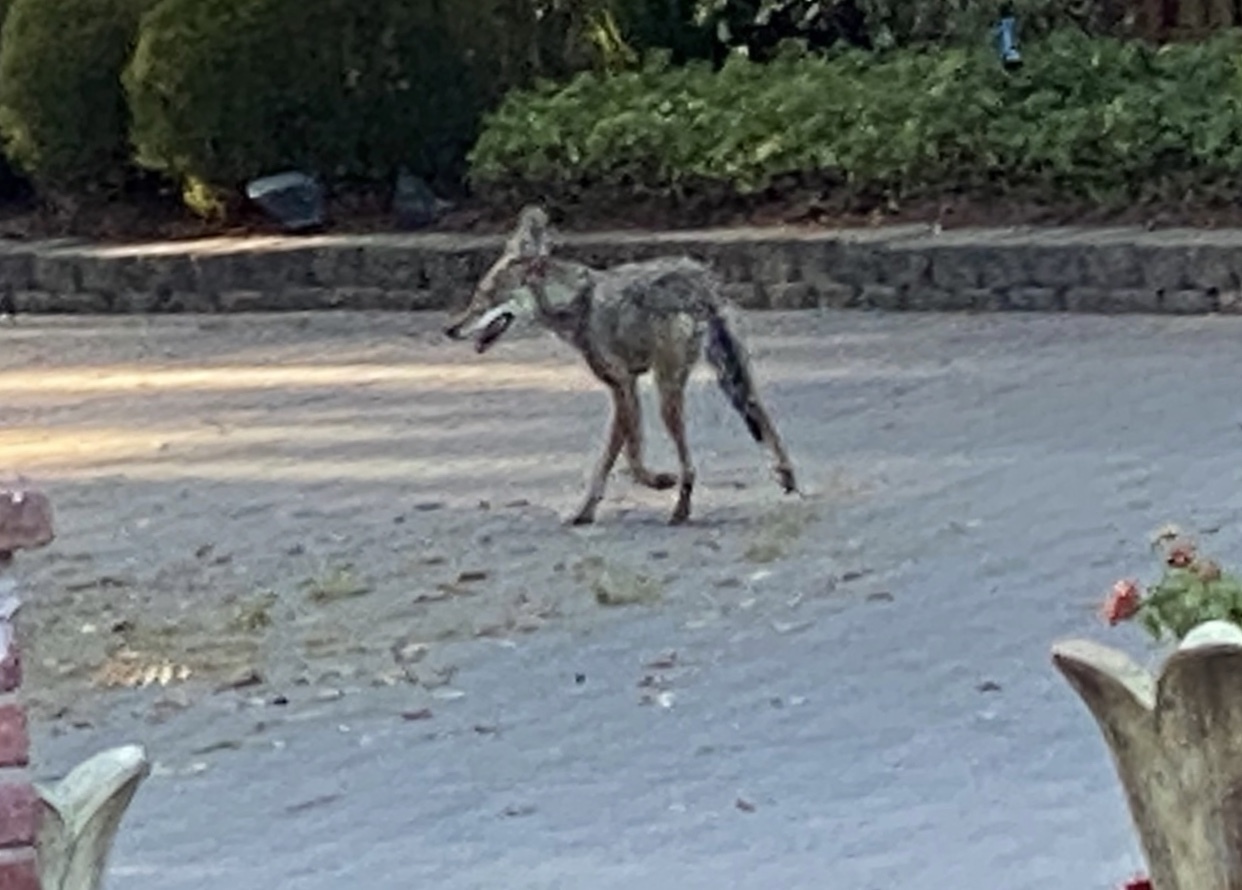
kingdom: Animalia
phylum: Chordata
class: Mammalia
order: Carnivora
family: Canidae
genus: Canis
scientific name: Canis latrans
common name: Coyote
